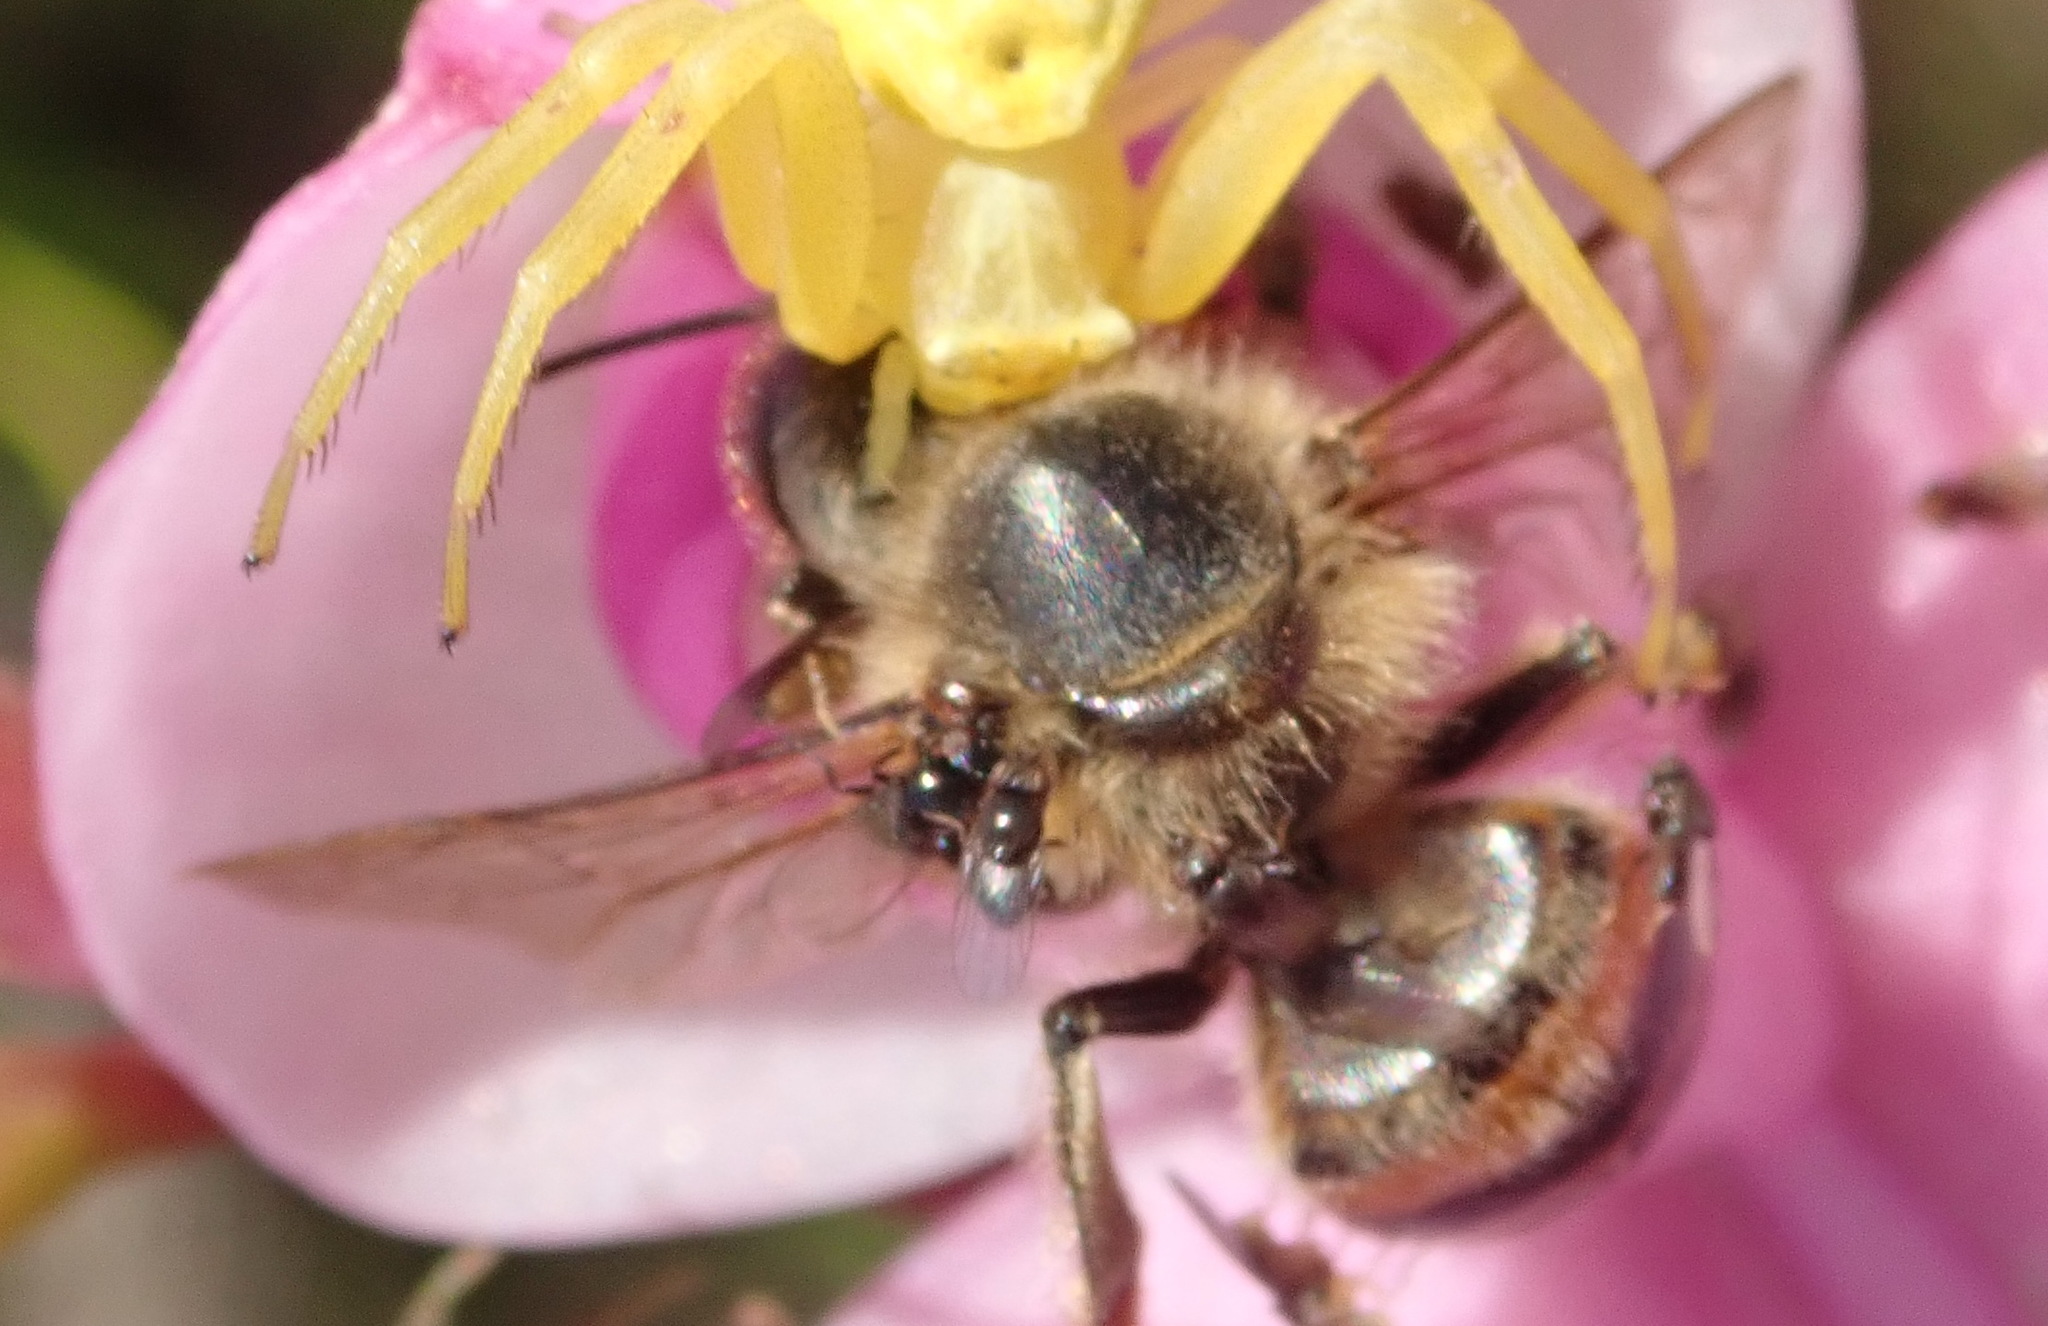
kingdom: Animalia
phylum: Arthropoda
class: Insecta
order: Hymenoptera
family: Apidae
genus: Apis
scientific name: Apis mellifera
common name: Honey bee
